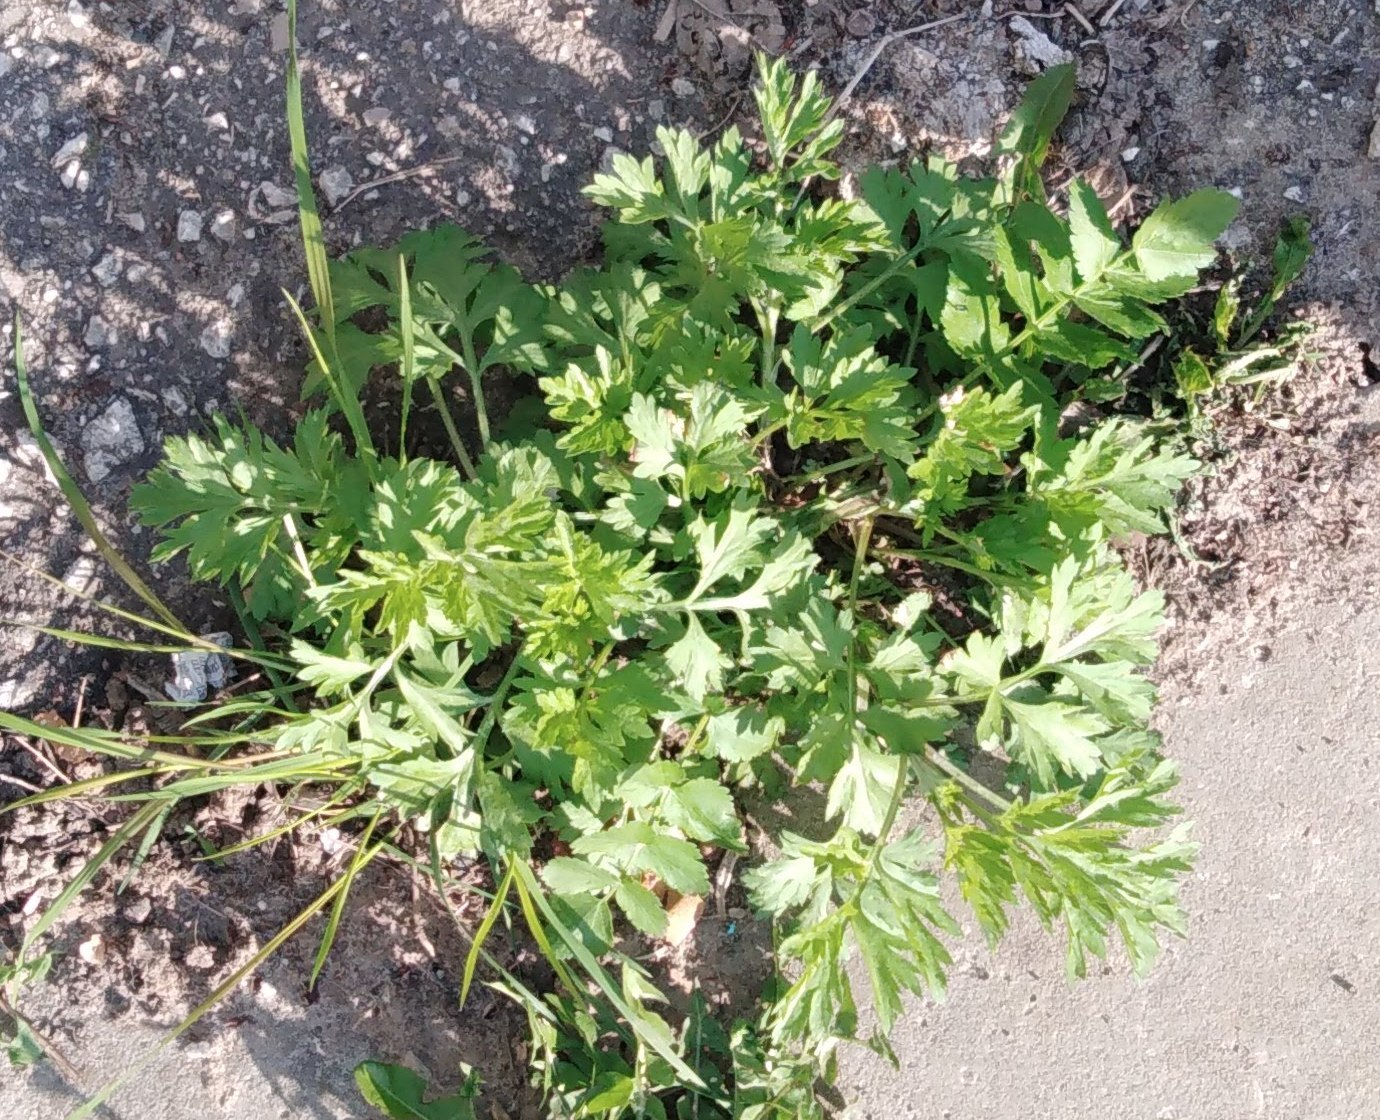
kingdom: Plantae
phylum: Tracheophyta
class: Magnoliopsida
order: Asterales
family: Asteraceae
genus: Artemisia
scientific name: Artemisia vulgaris
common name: Mugwort
